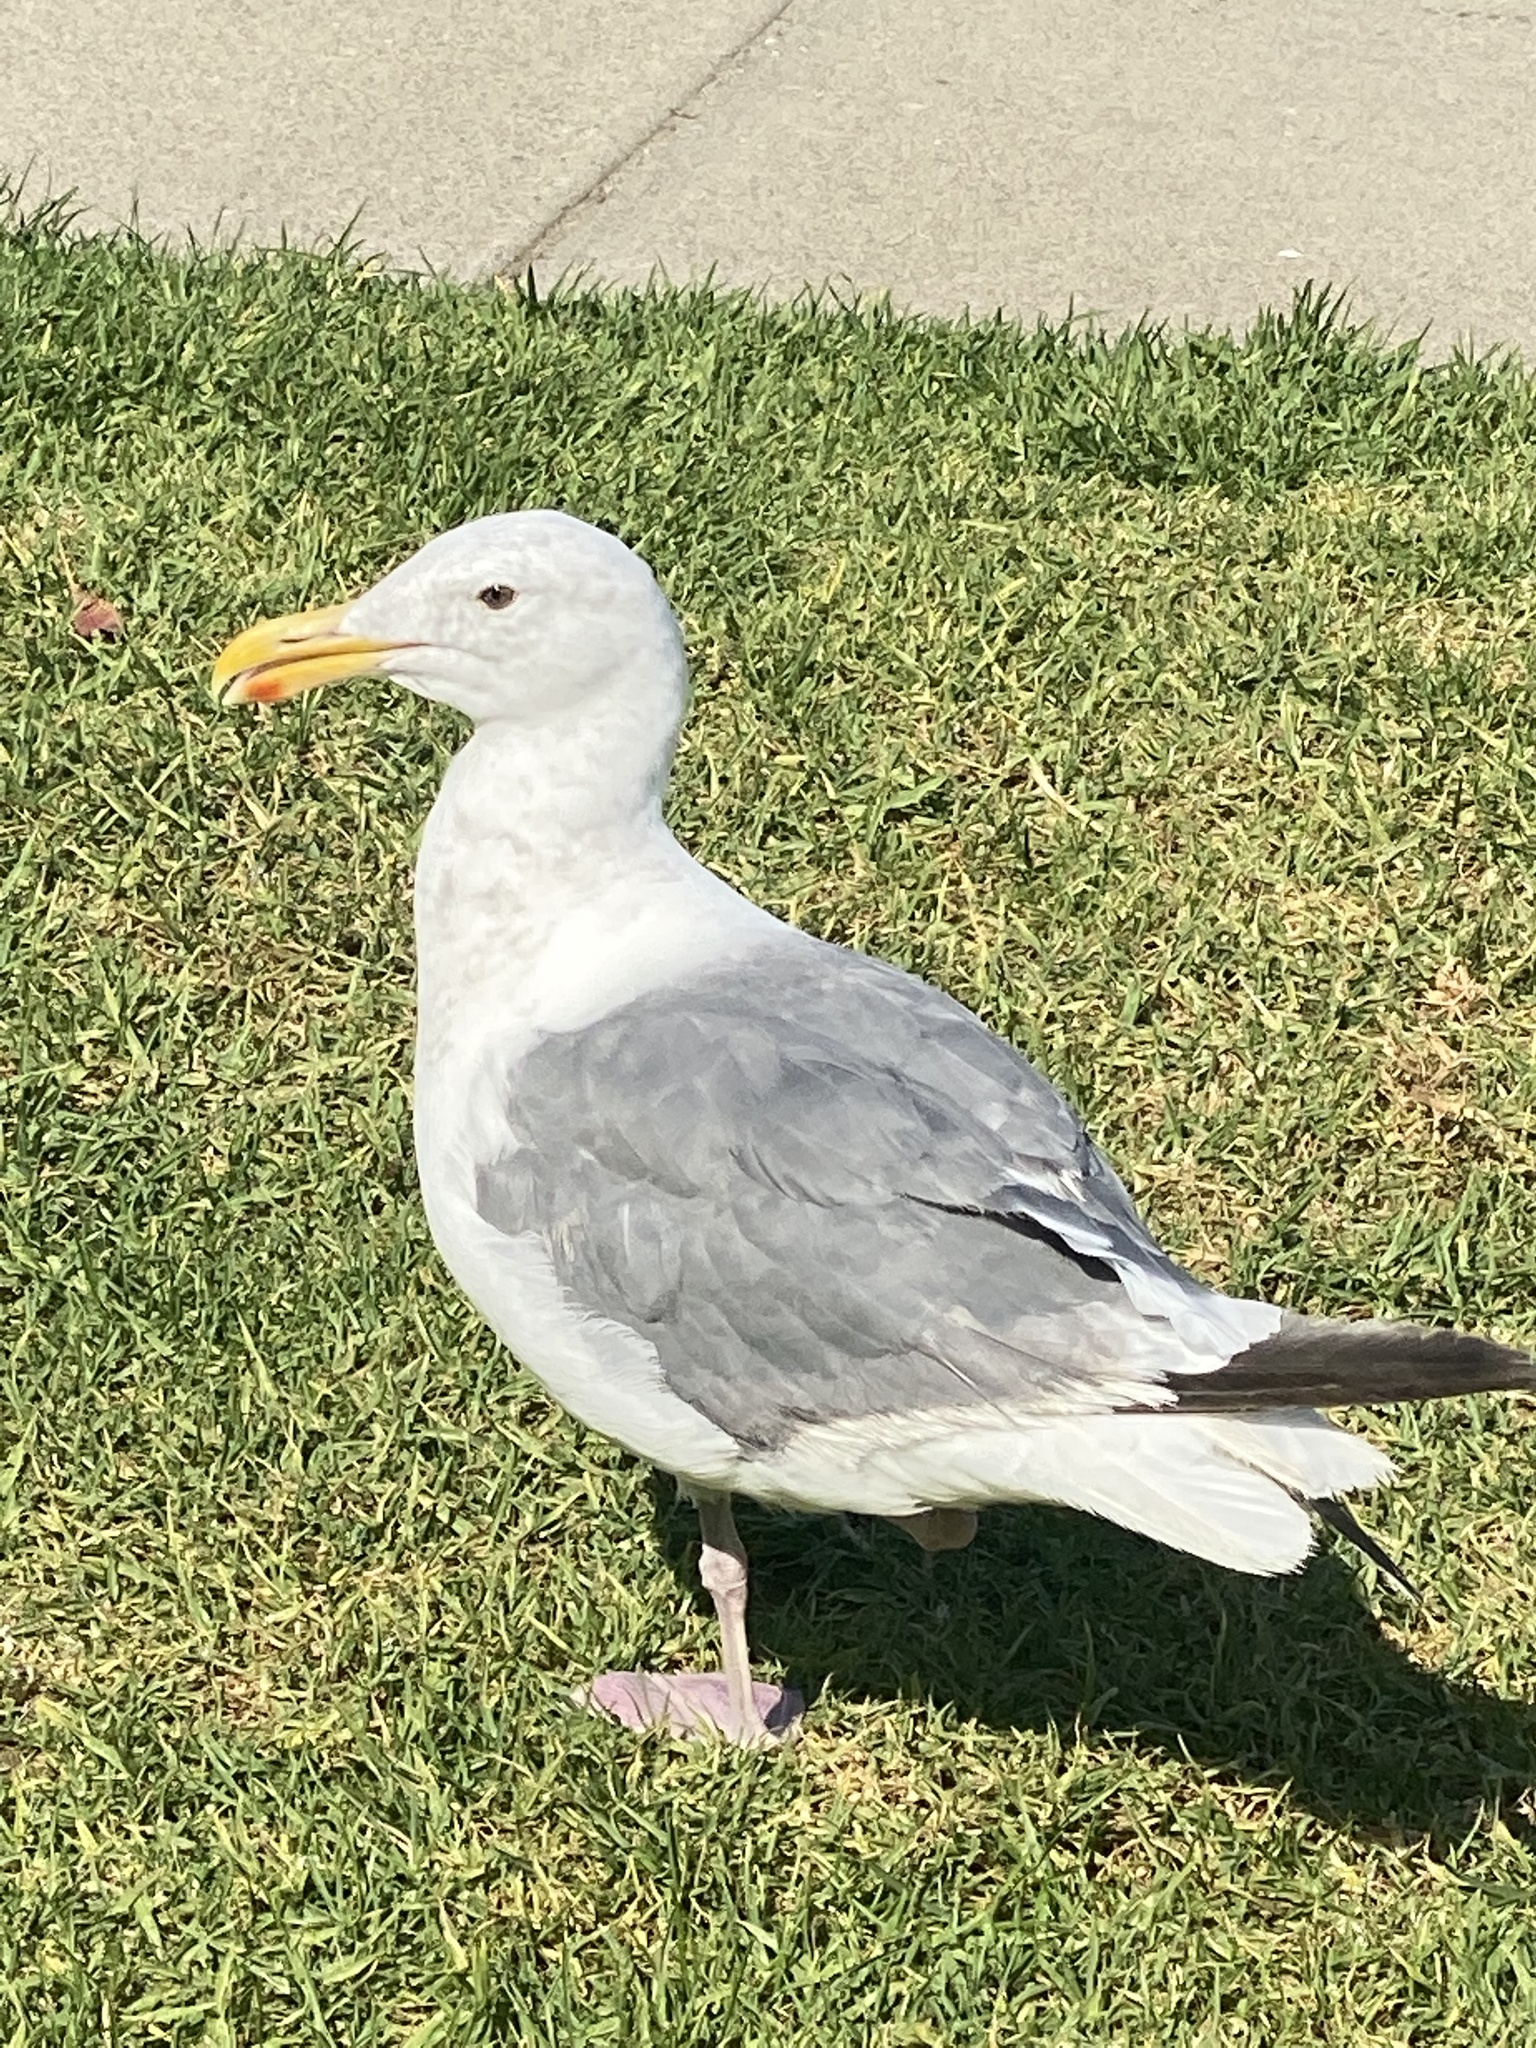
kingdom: Animalia
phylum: Chordata
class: Aves
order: Charadriiformes
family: Laridae
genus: Larus
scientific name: Larus occidentalis
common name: Western gull
